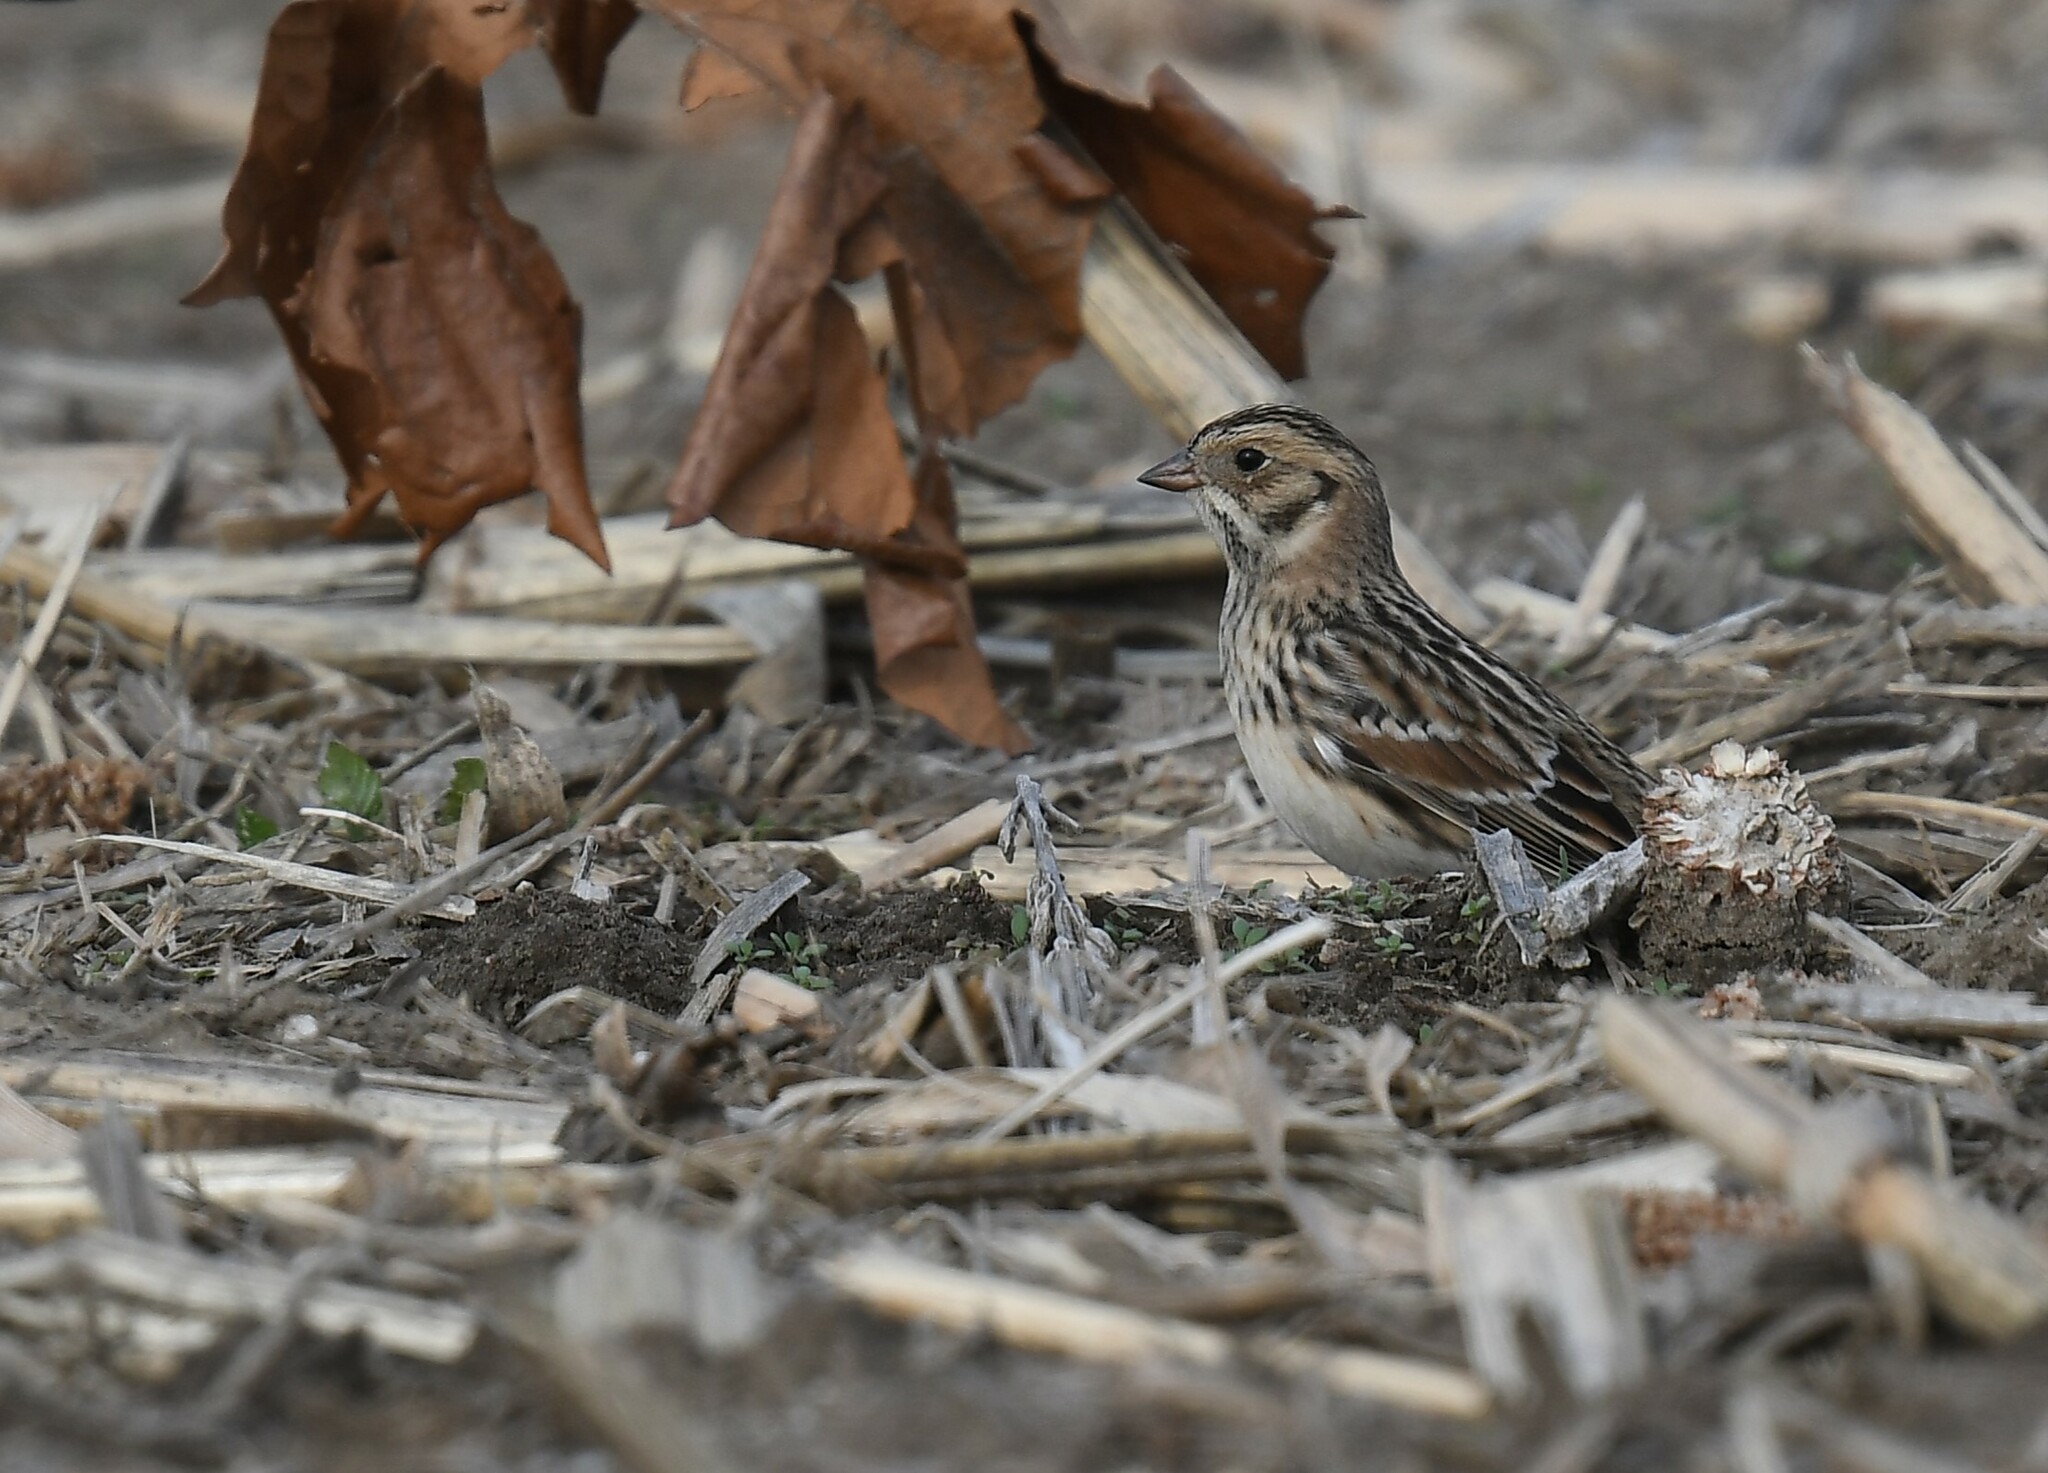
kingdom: Animalia
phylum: Chordata
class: Aves
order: Passeriformes
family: Calcariidae
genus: Calcarius
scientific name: Calcarius lapponicus
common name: Lapland longspur
